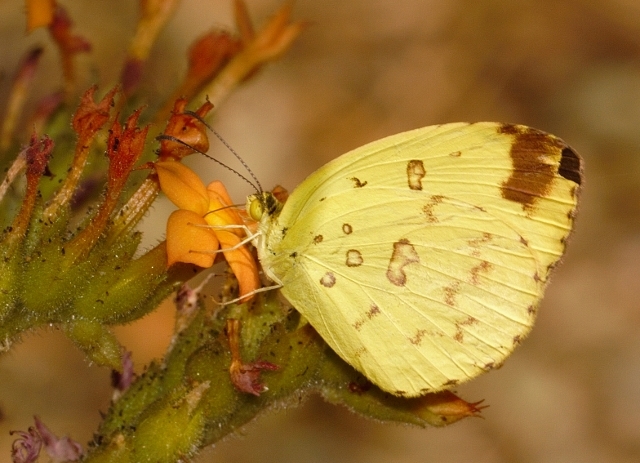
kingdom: Animalia
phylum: Arthropoda
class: Insecta
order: Lepidoptera
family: Pieridae
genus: Eurema
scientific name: Eurema hecabe
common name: Pale grass yellow
